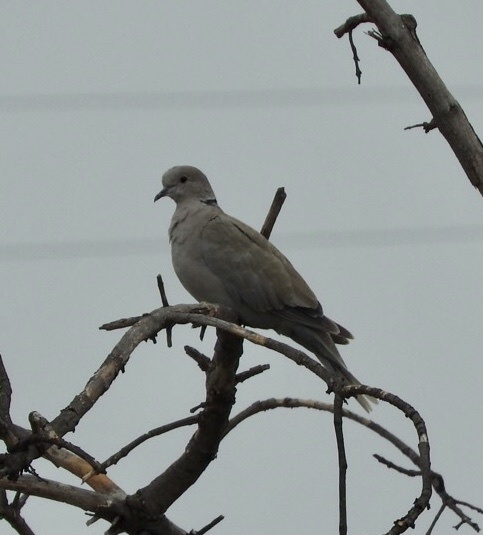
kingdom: Animalia
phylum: Chordata
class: Aves
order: Columbiformes
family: Columbidae
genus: Streptopelia
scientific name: Streptopelia roseogrisea
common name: African collared dove
